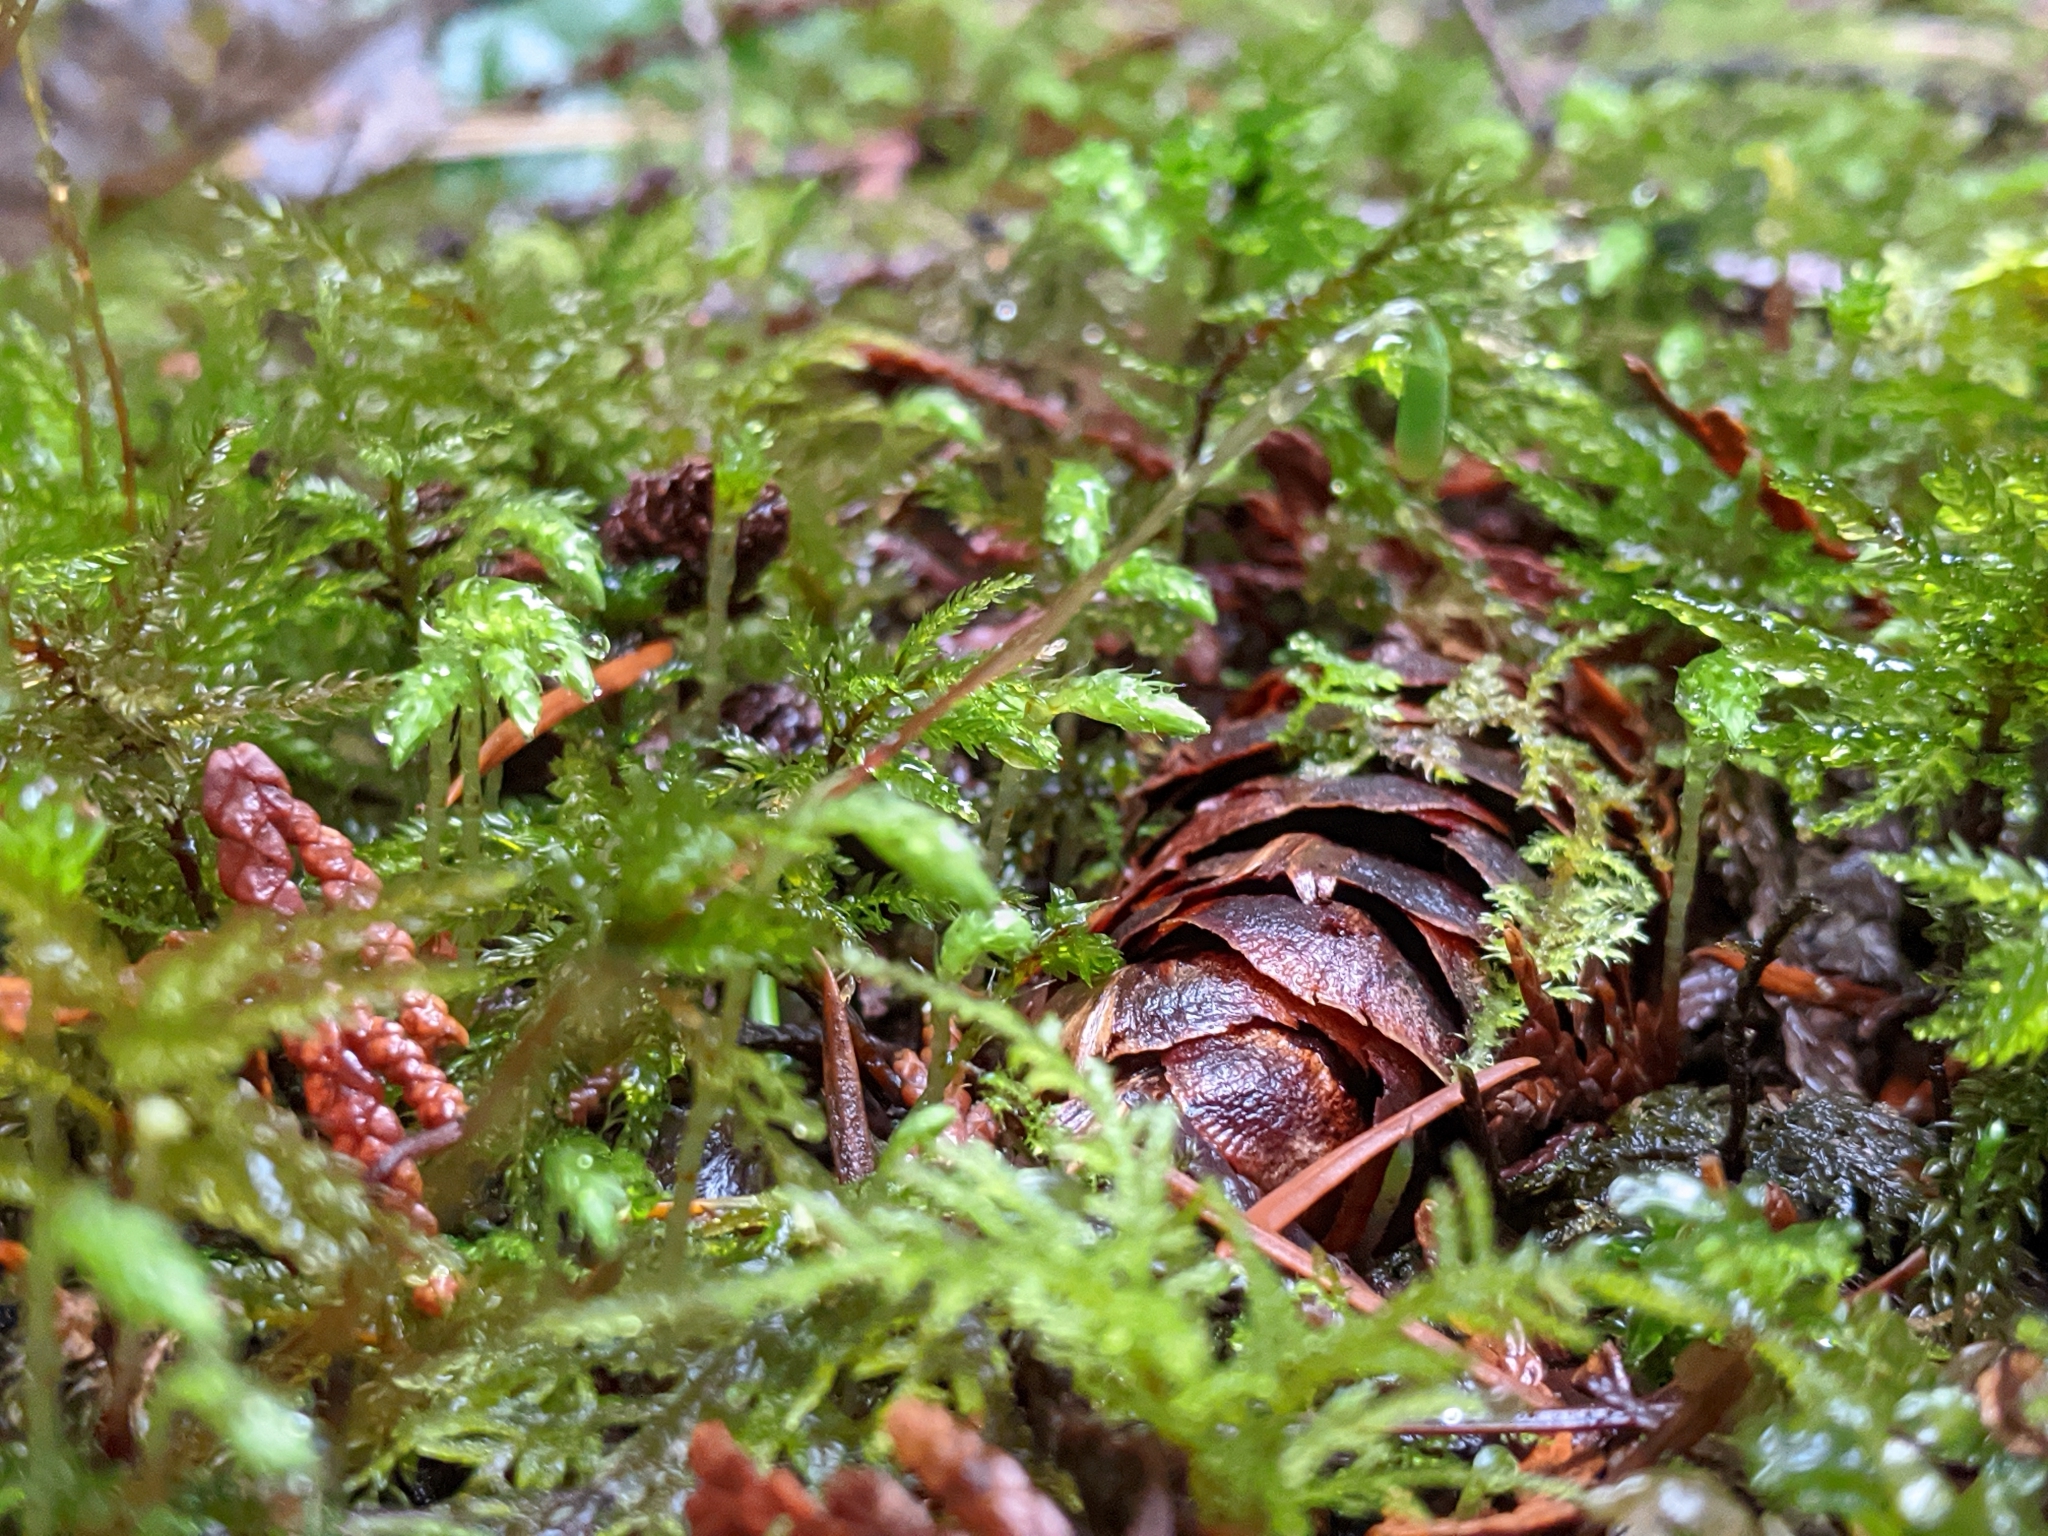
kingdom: Plantae
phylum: Bryophyta
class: Bryopsida
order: Bryales
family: Mniaceae
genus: Leucolepis
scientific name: Leucolepis acanthoneura
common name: Leucolepis umbrella moss
